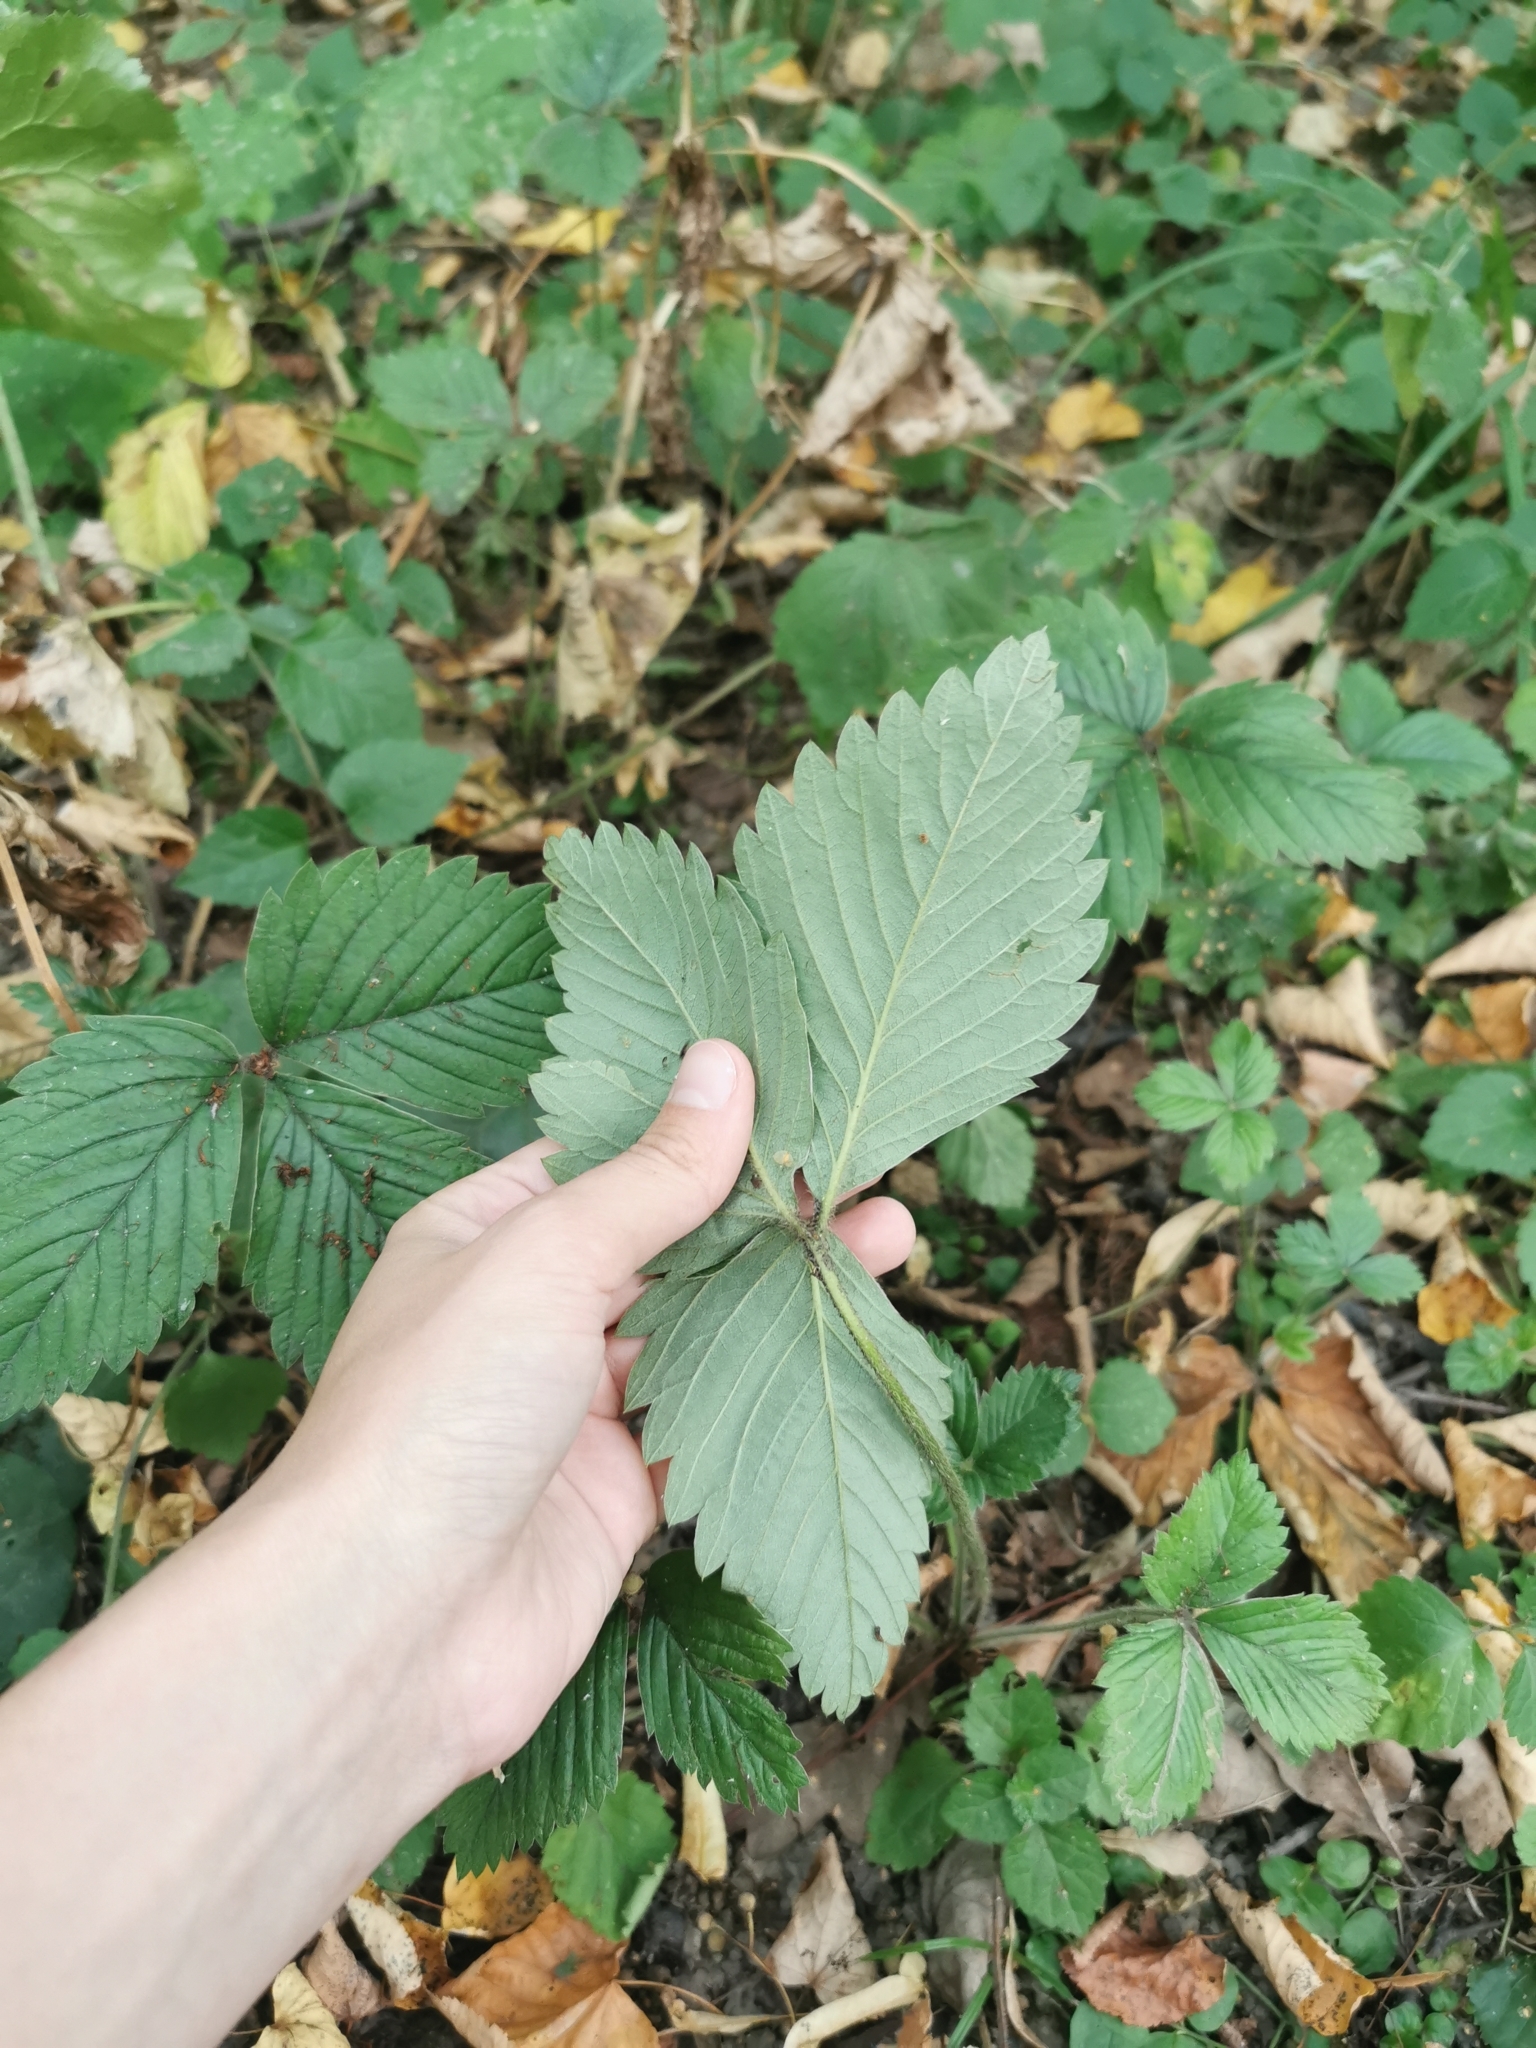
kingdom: Plantae
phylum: Tracheophyta
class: Magnoliopsida
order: Rosales
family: Rosaceae
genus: Fragaria
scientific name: Fragaria moschata
